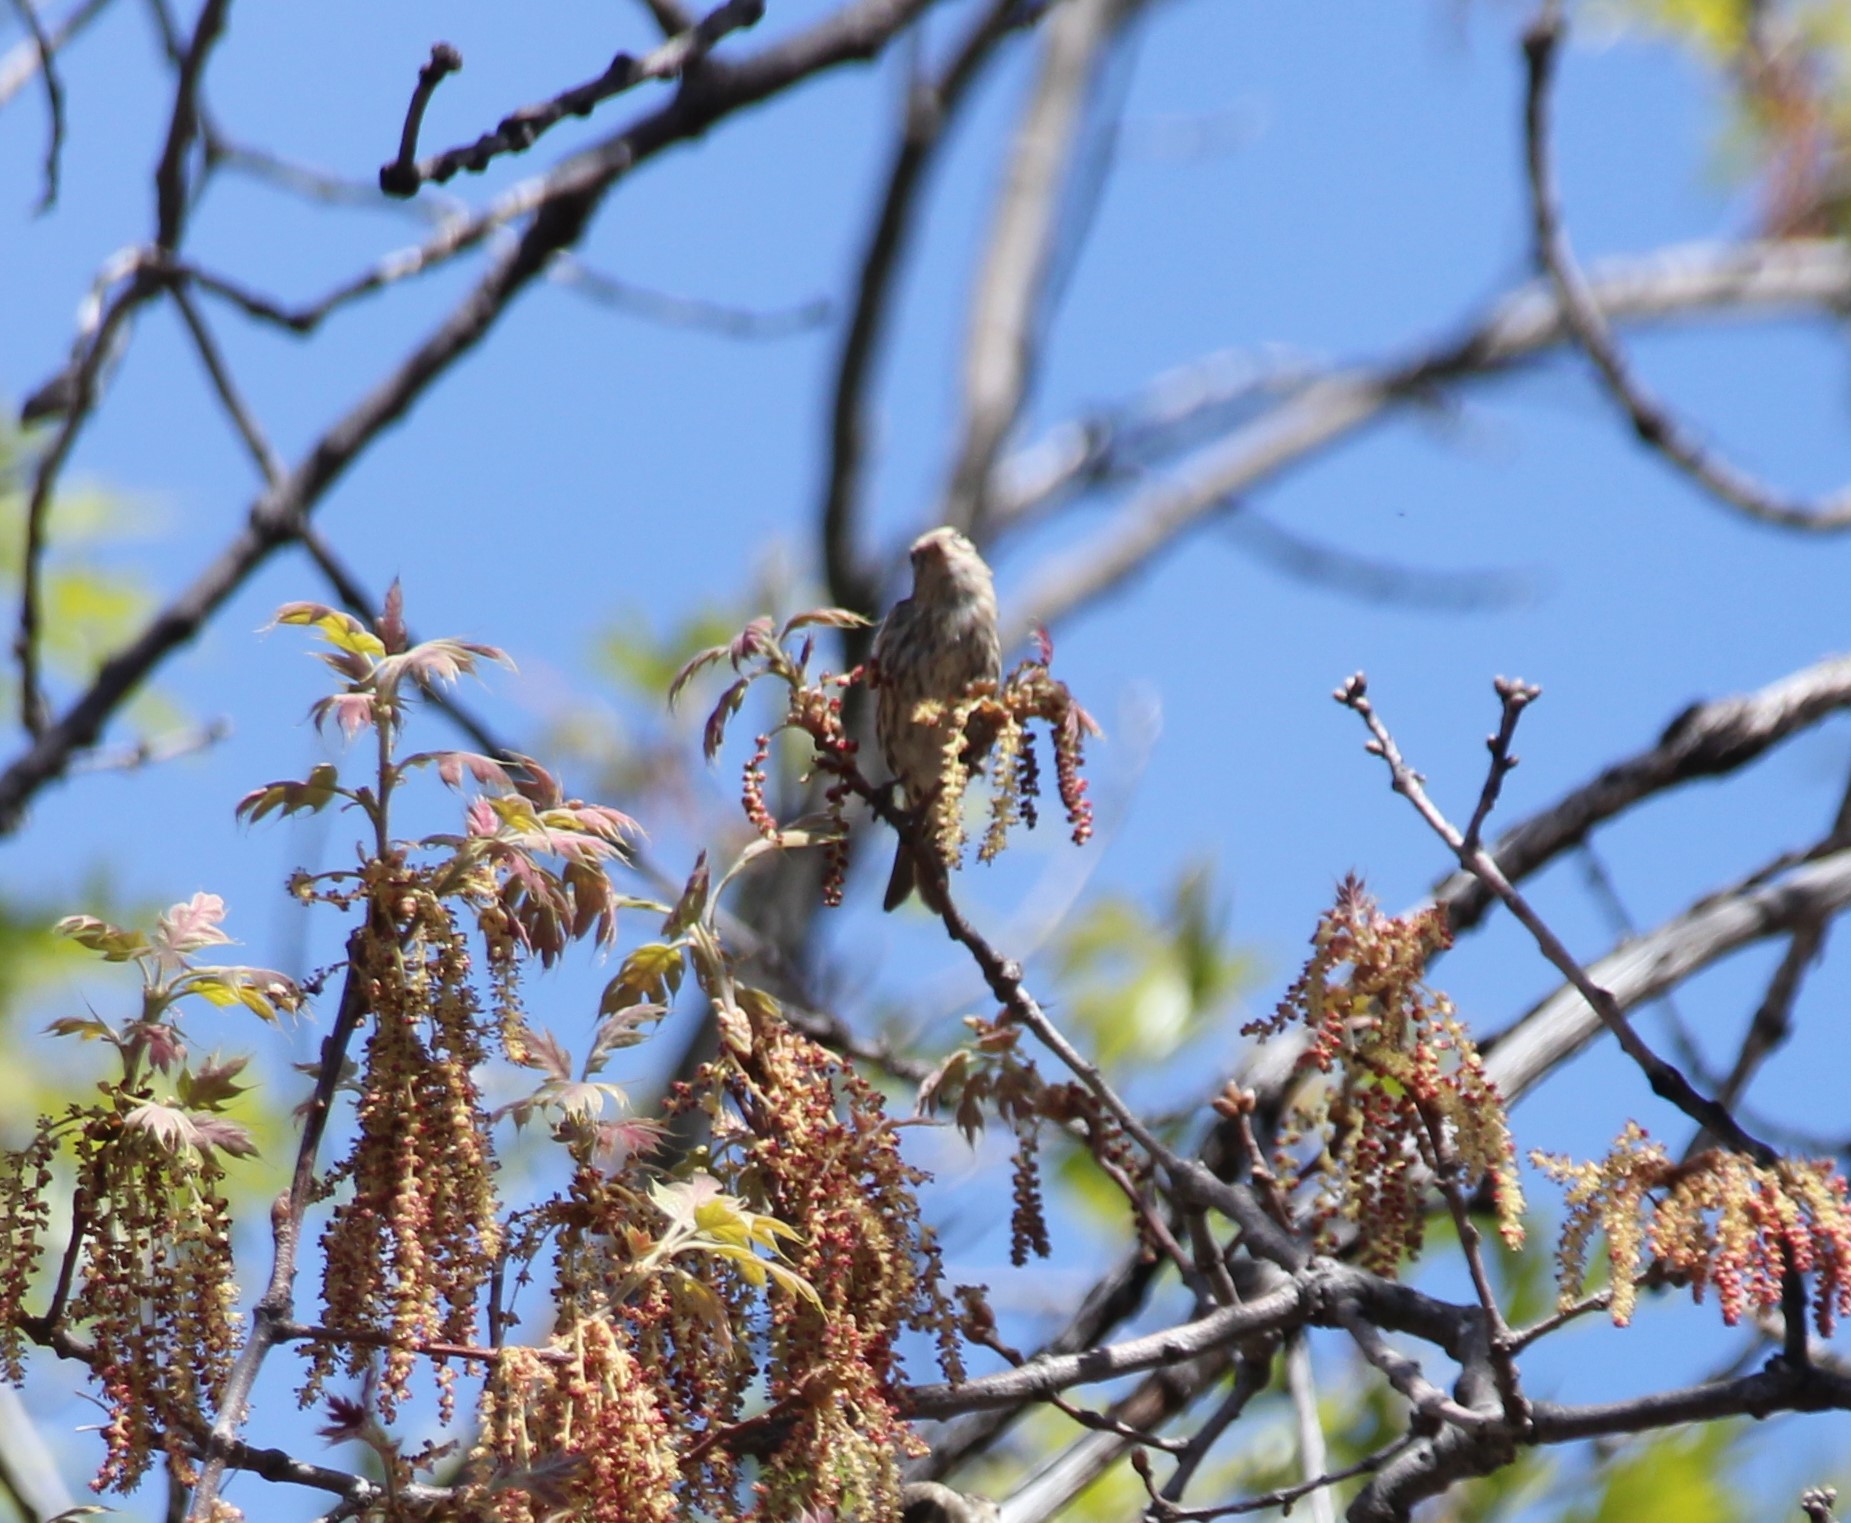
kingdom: Animalia
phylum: Chordata
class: Aves
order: Passeriformes
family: Fringillidae
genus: Spinus
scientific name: Spinus pinus
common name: Pine siskin
